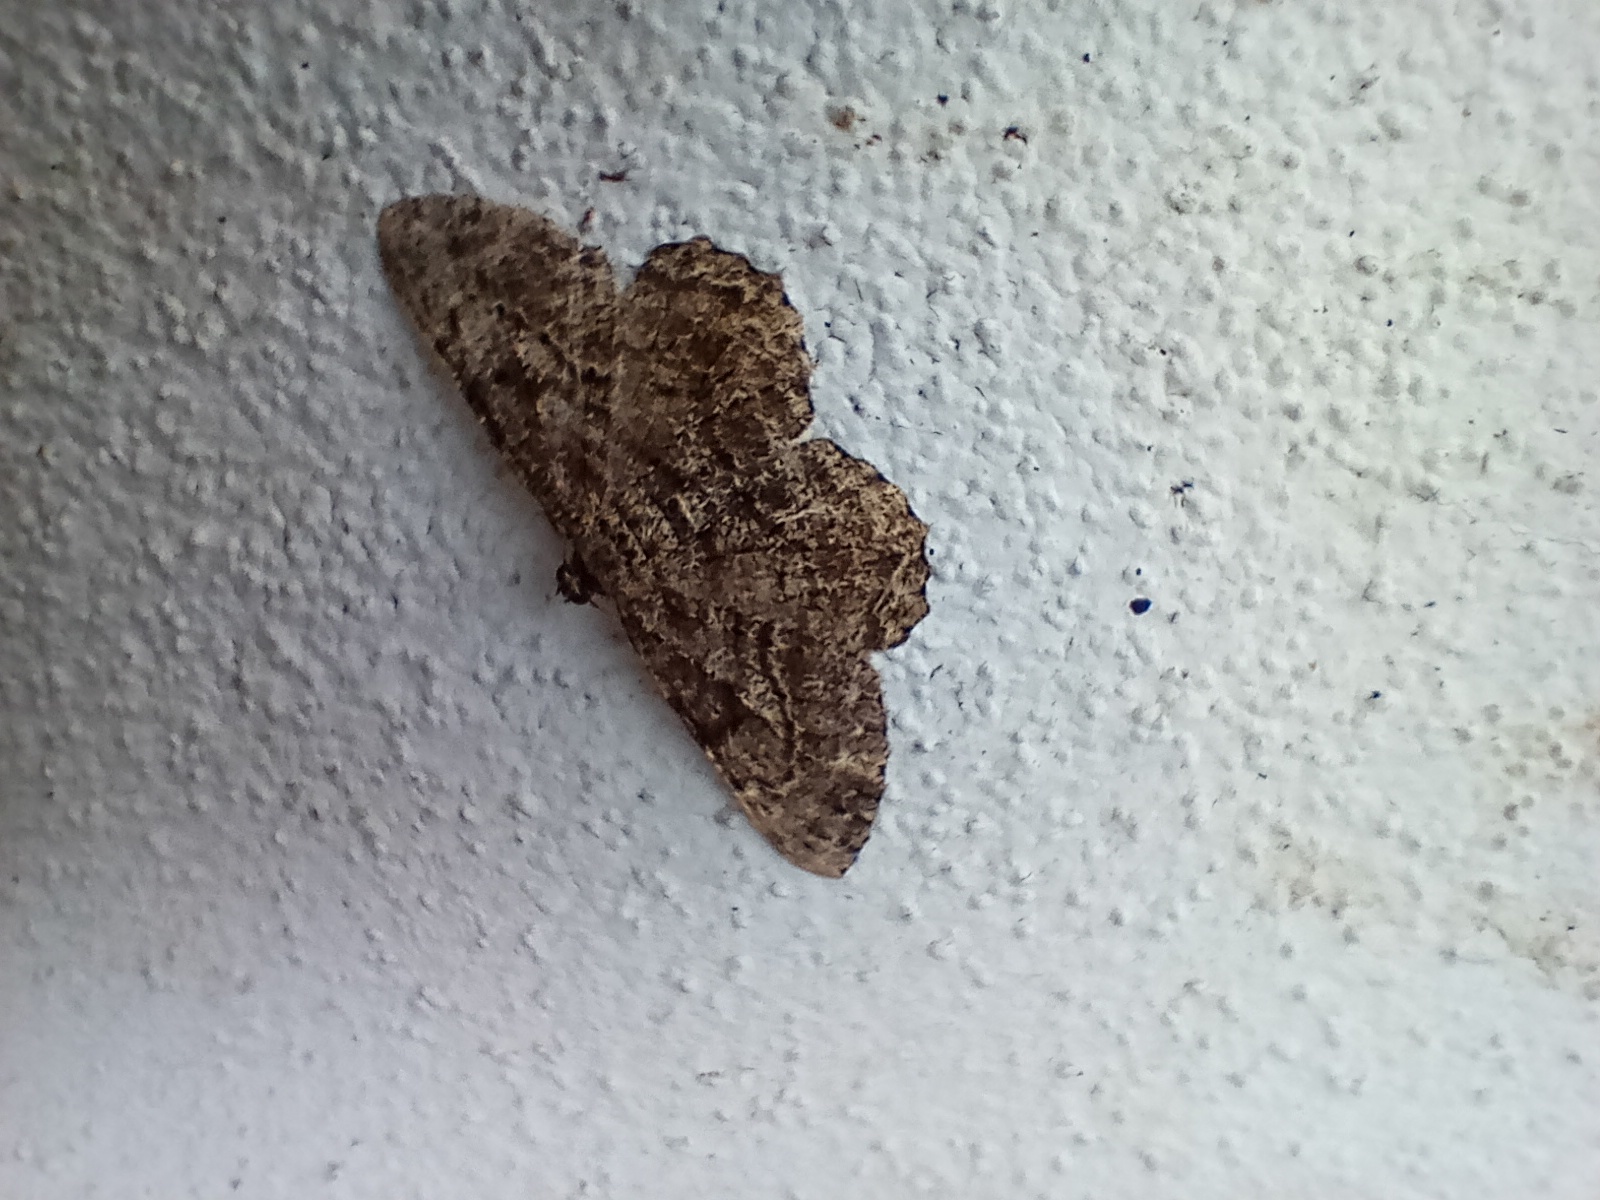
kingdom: Animalia
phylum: Arthropoda
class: Insecta
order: Lepidoptera
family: Geometridae
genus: Peribatodes
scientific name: Peribatodes rhomboidaria
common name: Willow beauty
